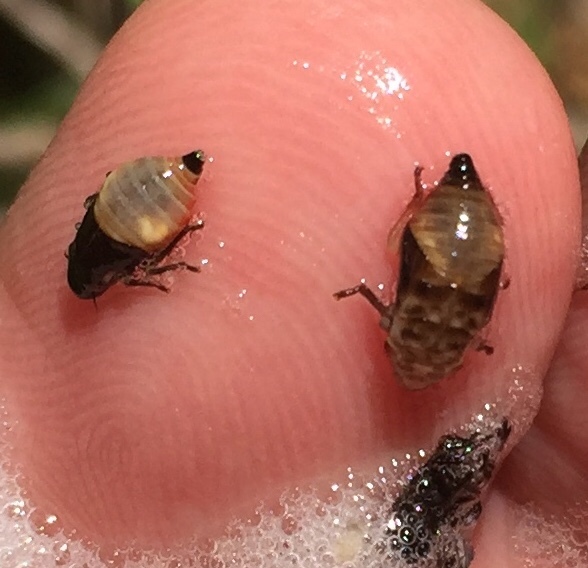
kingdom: Animalia
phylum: Arthropoda
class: Insecta
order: Hemiptera
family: Epipygidae
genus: Epipyga
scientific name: Epipyga cribrata
